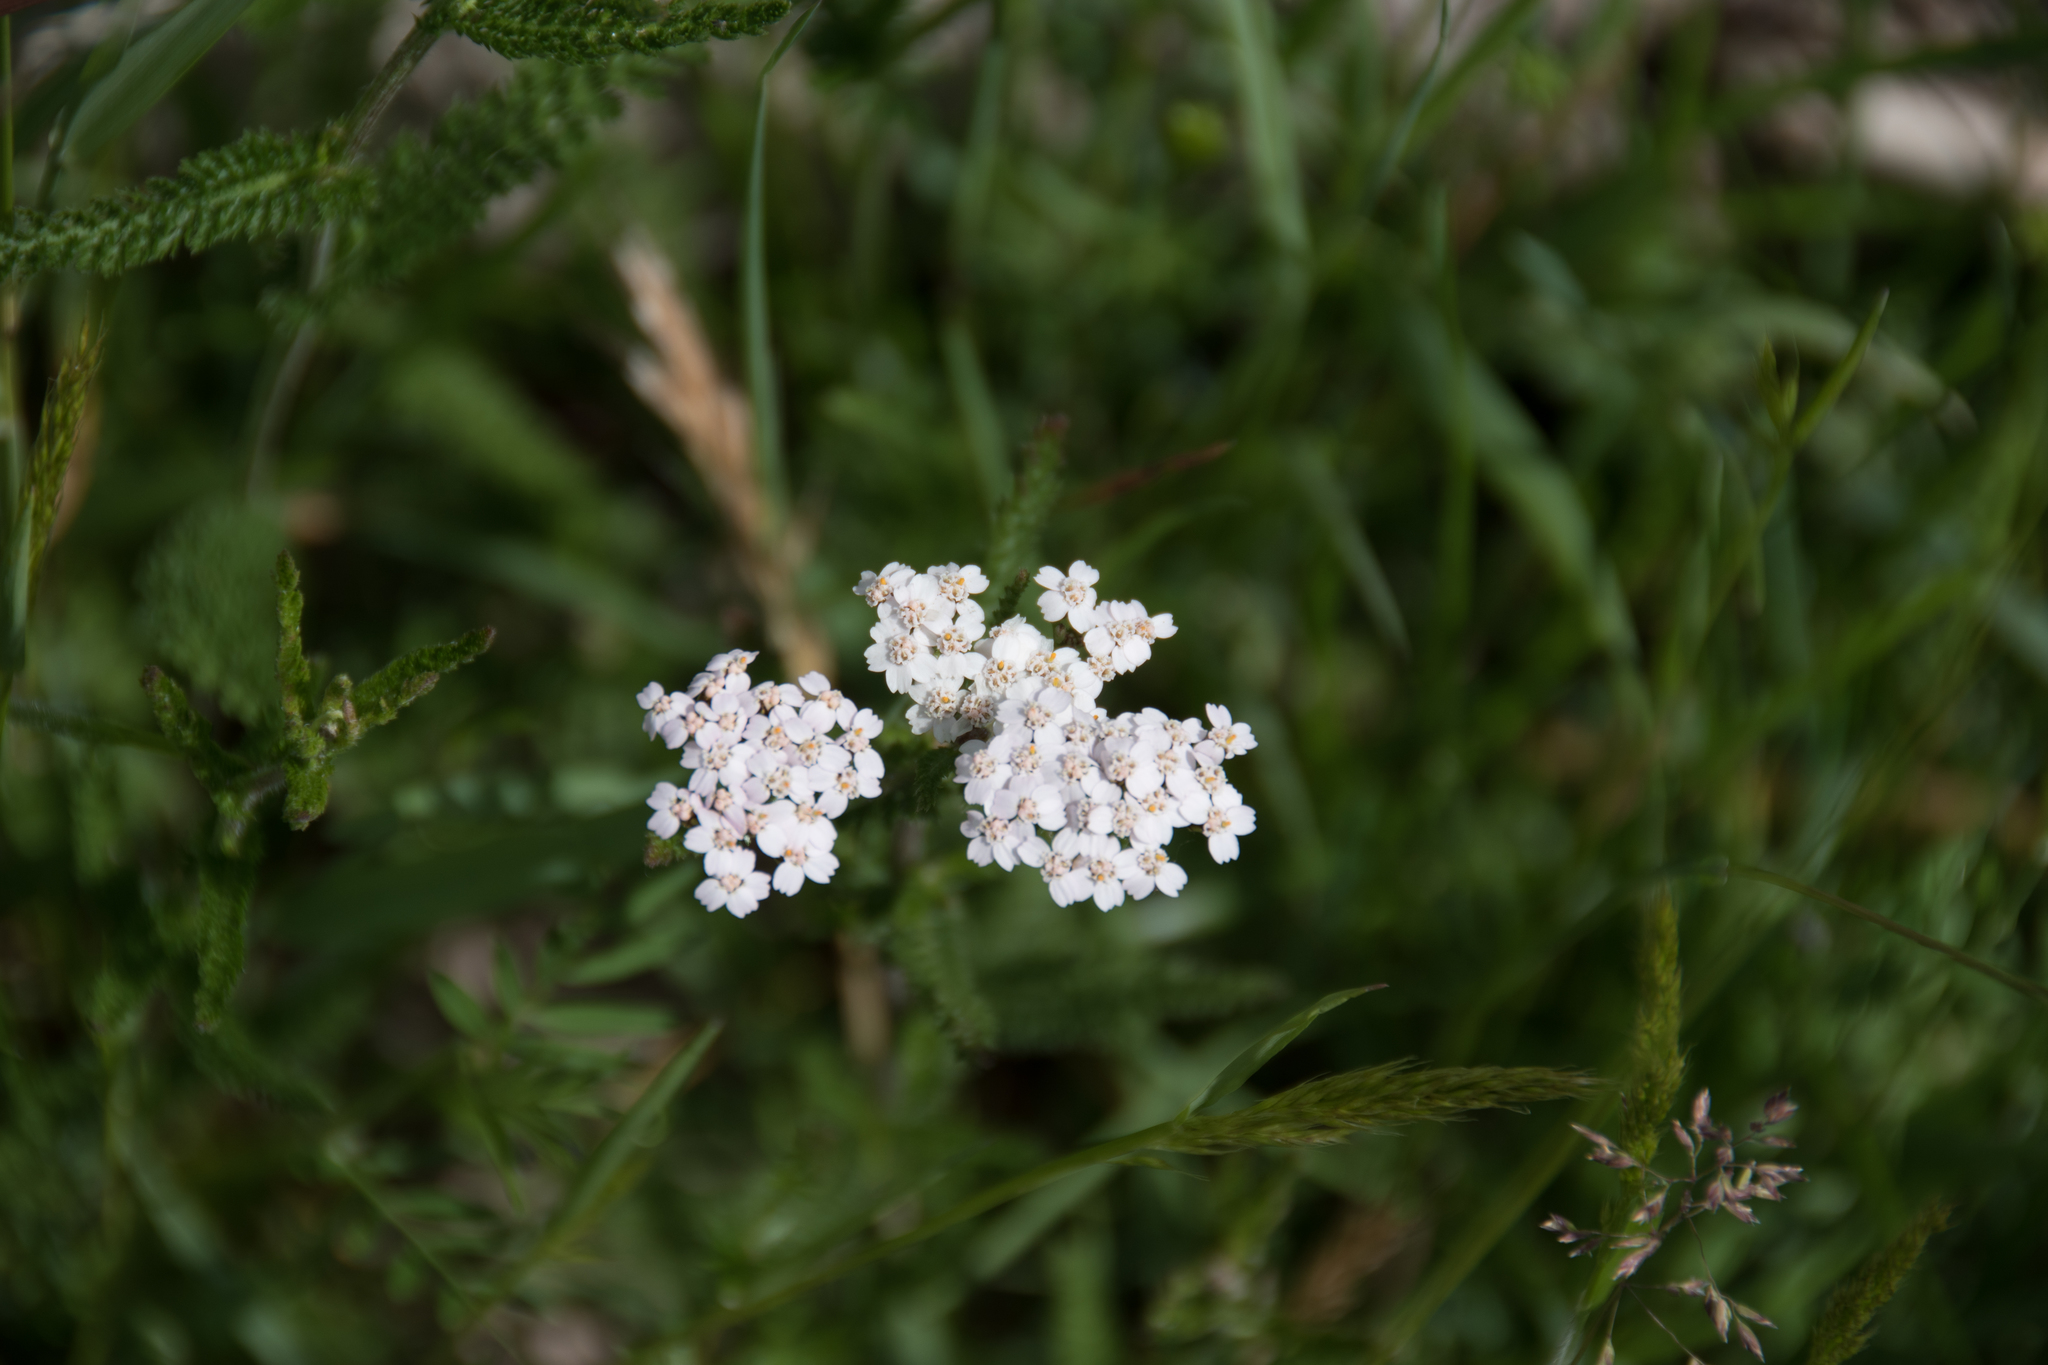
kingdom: Plantae
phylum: Tracheophyta
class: Magnoliopsida
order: Asterales
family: Asteraceae
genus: Achillea
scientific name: Achillea millefolium
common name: Yarrow
